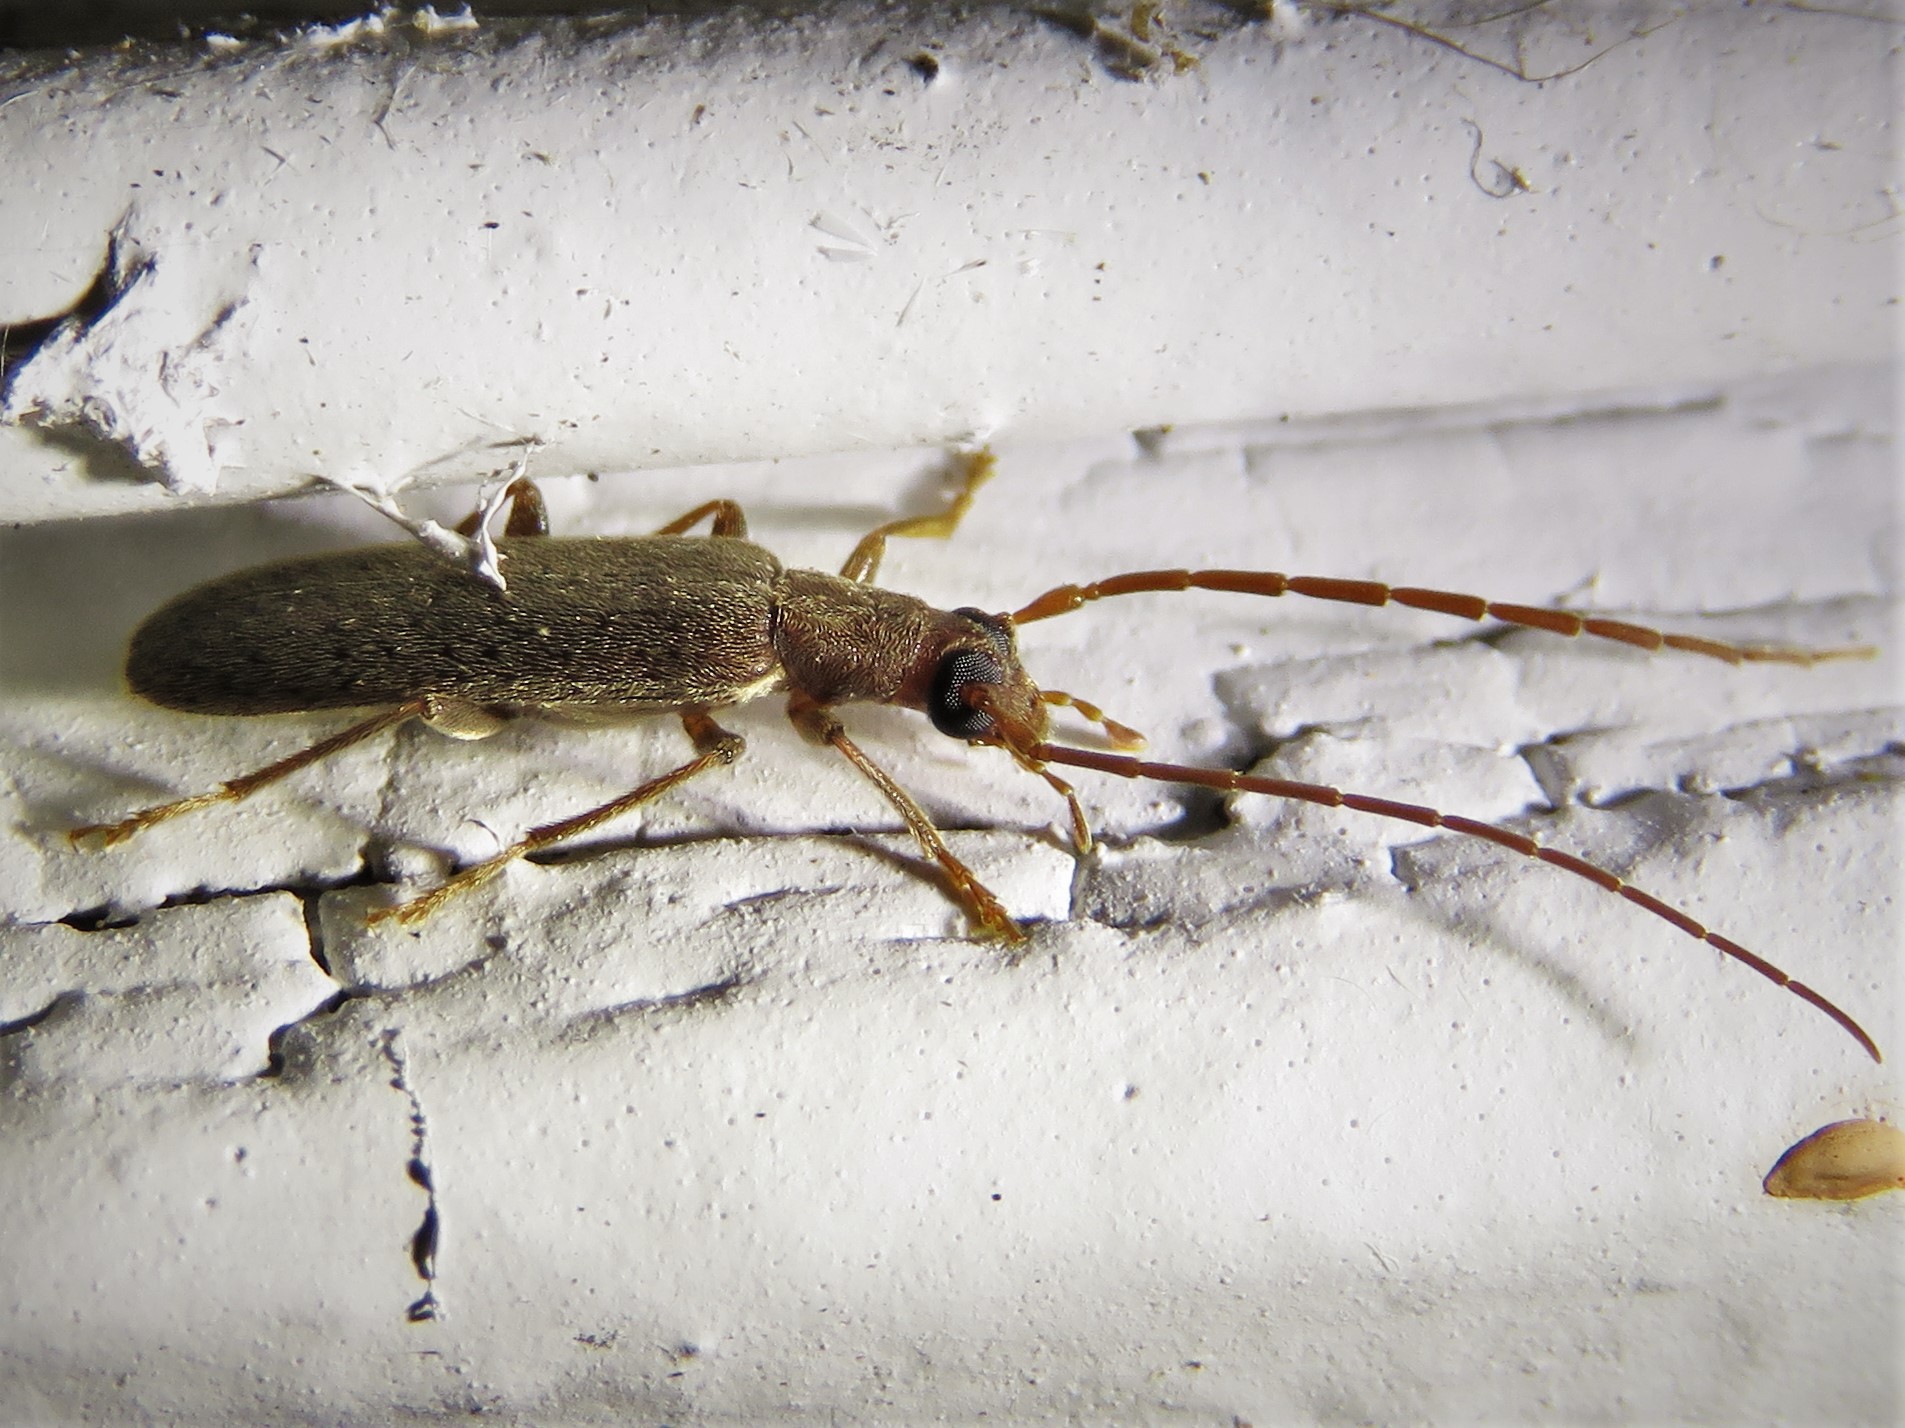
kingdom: Animalia
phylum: Arthropoda
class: Insecta
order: Coleoptera
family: Oedemeridae
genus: Sparedrus
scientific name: Sparedrus aspersus
